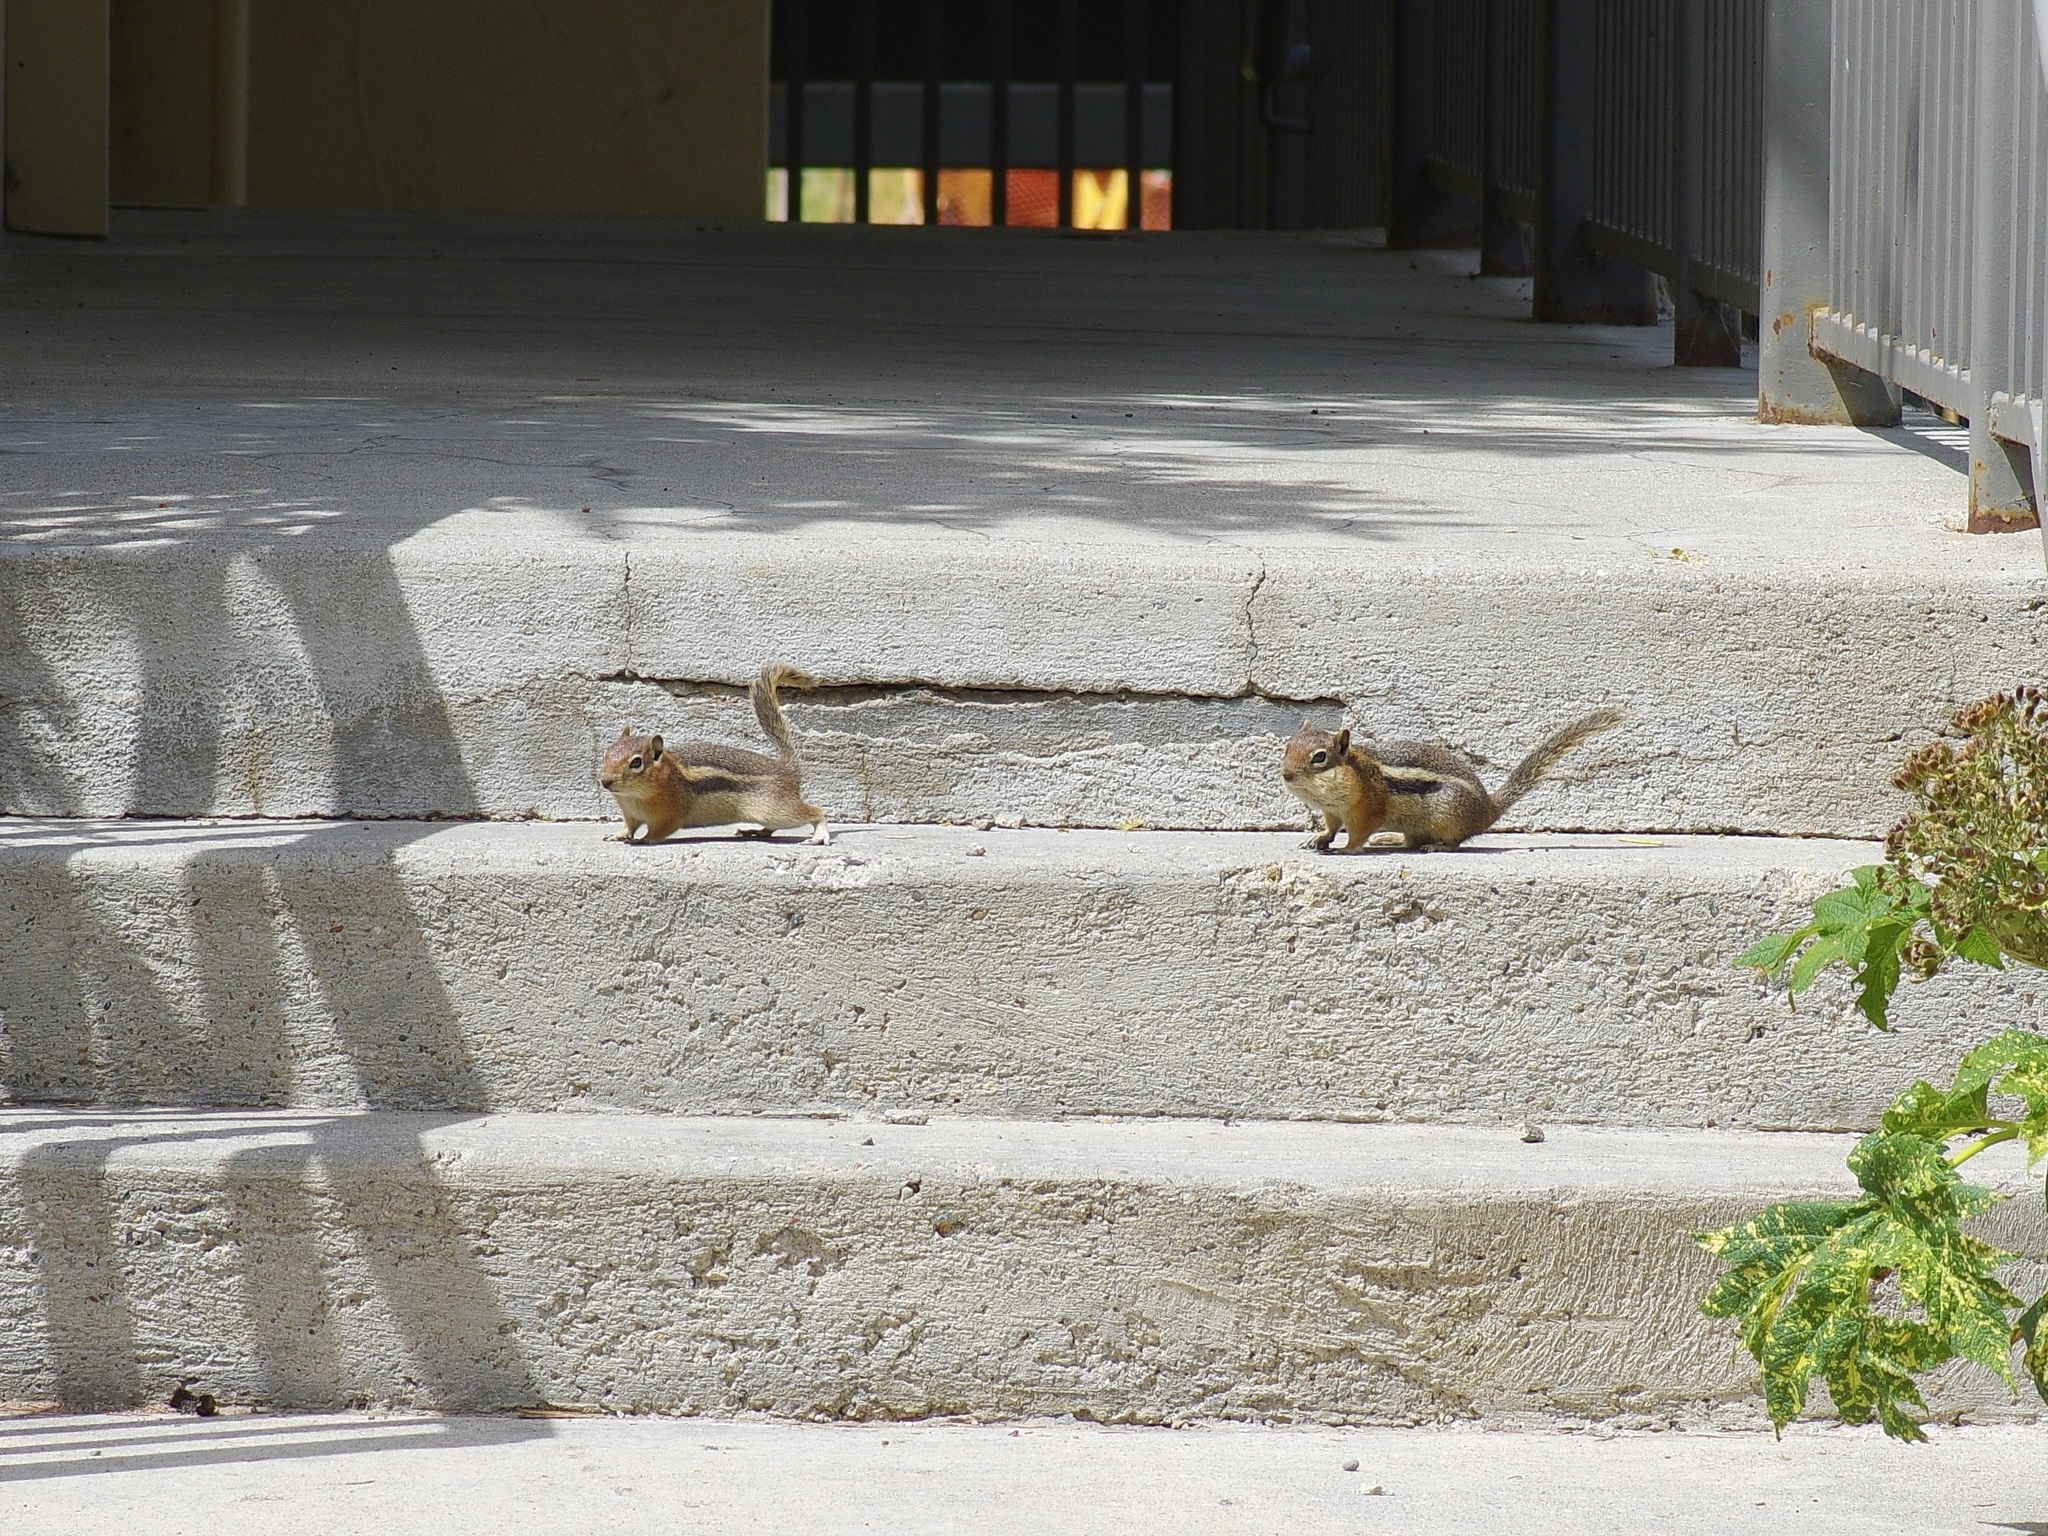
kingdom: Animalia
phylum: Chordata
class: Mammalia
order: Rodentia
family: Sciuridae
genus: Callospermophilus
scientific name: Callospermophilus lateralis
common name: Golden-mantled ground squirrel
